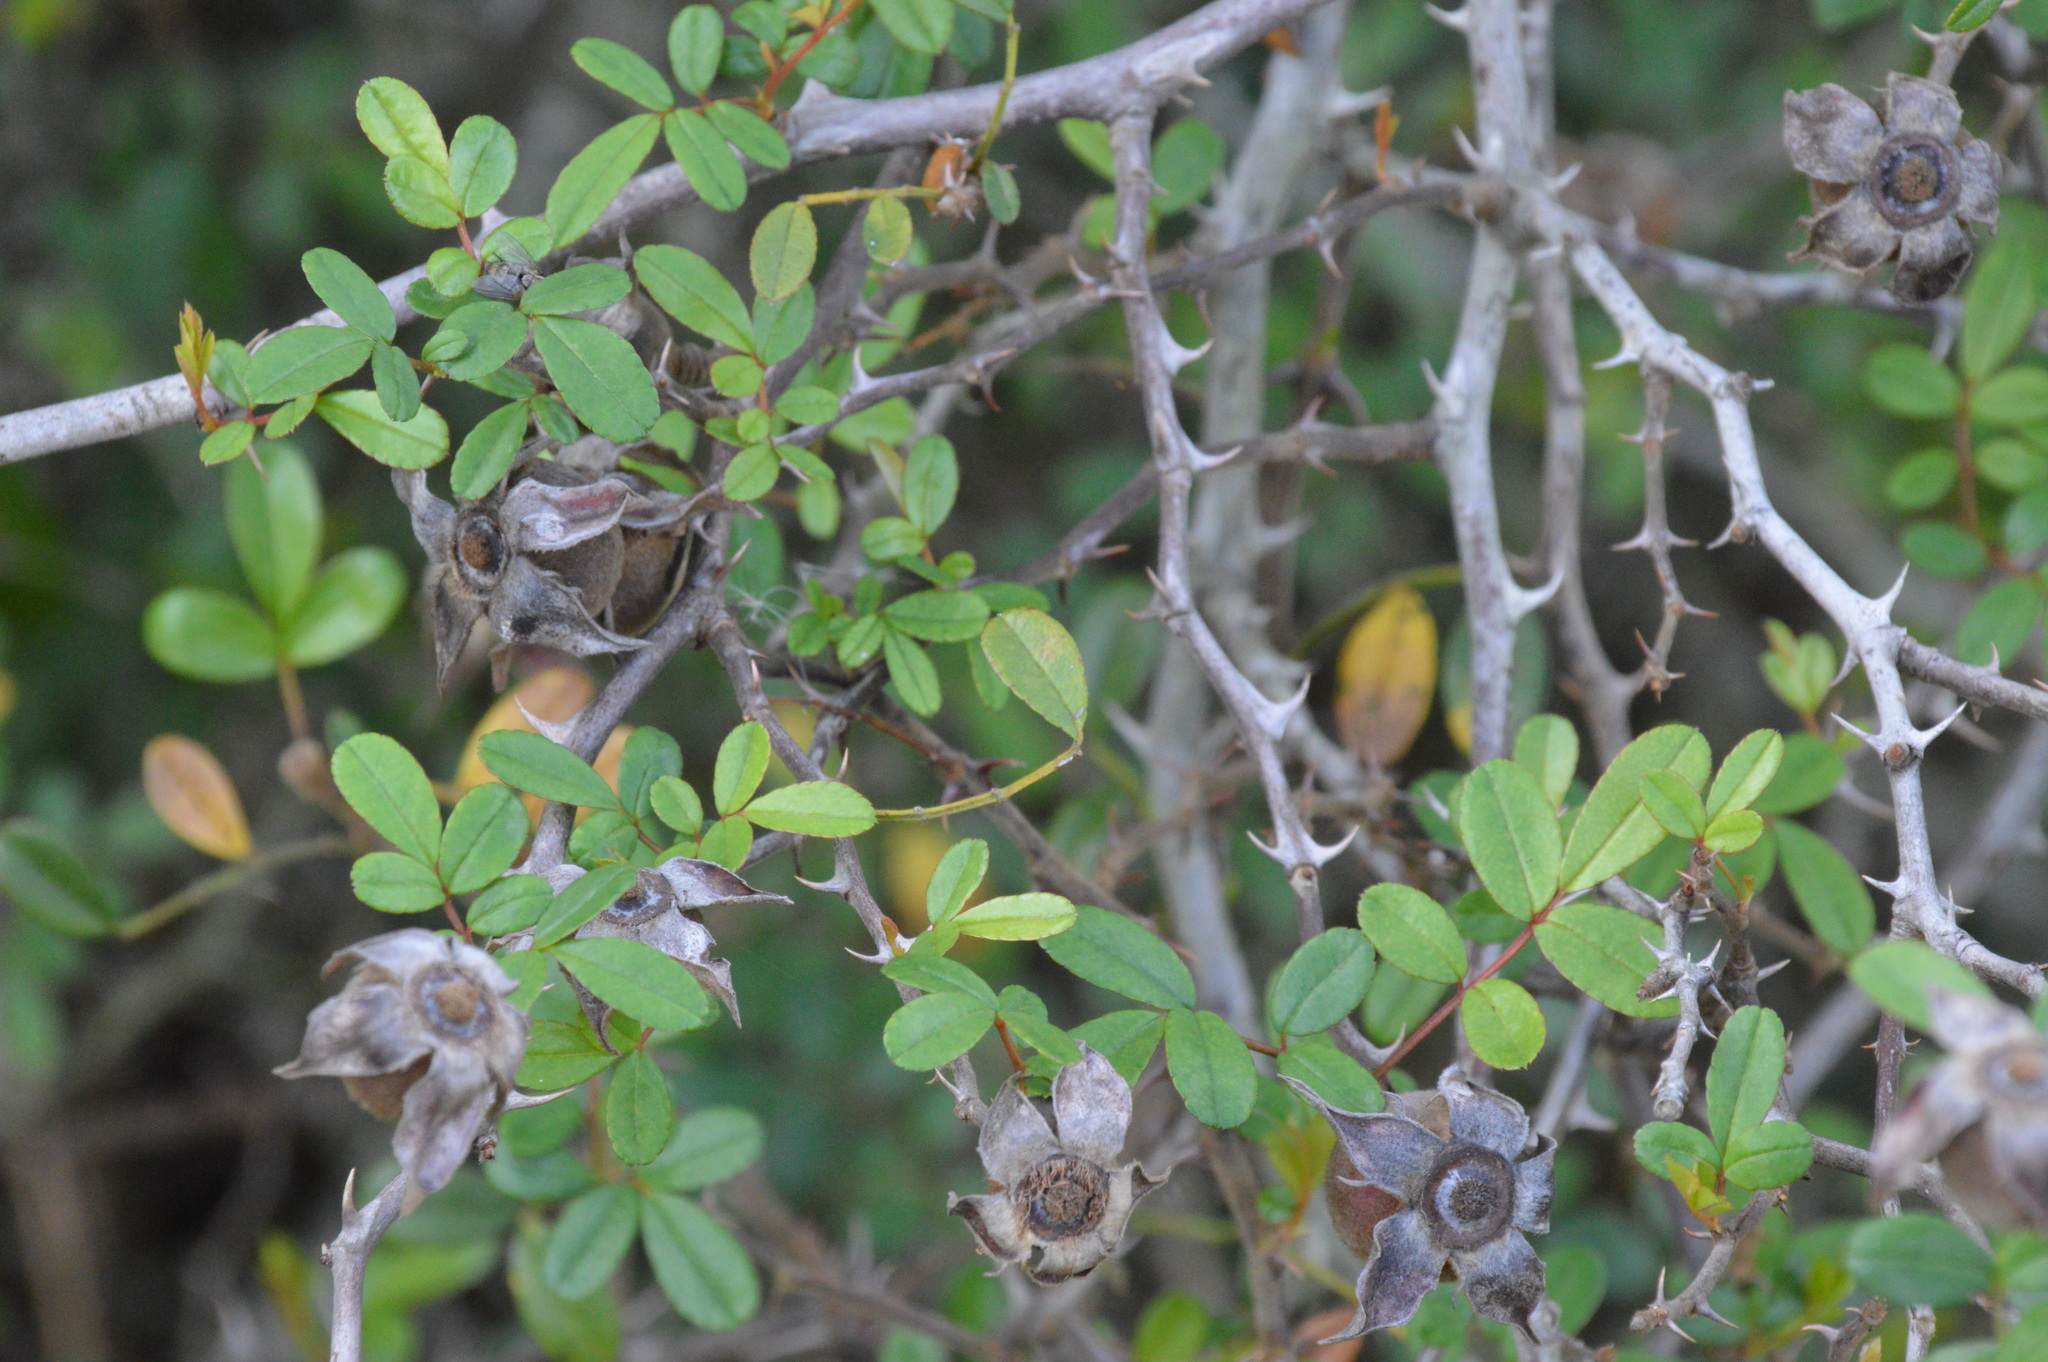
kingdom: Plantae
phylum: Tracheophyta
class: Magnoliopsida
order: Rosales
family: Rosaceae
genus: Rosa
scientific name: Rosa bracteata
